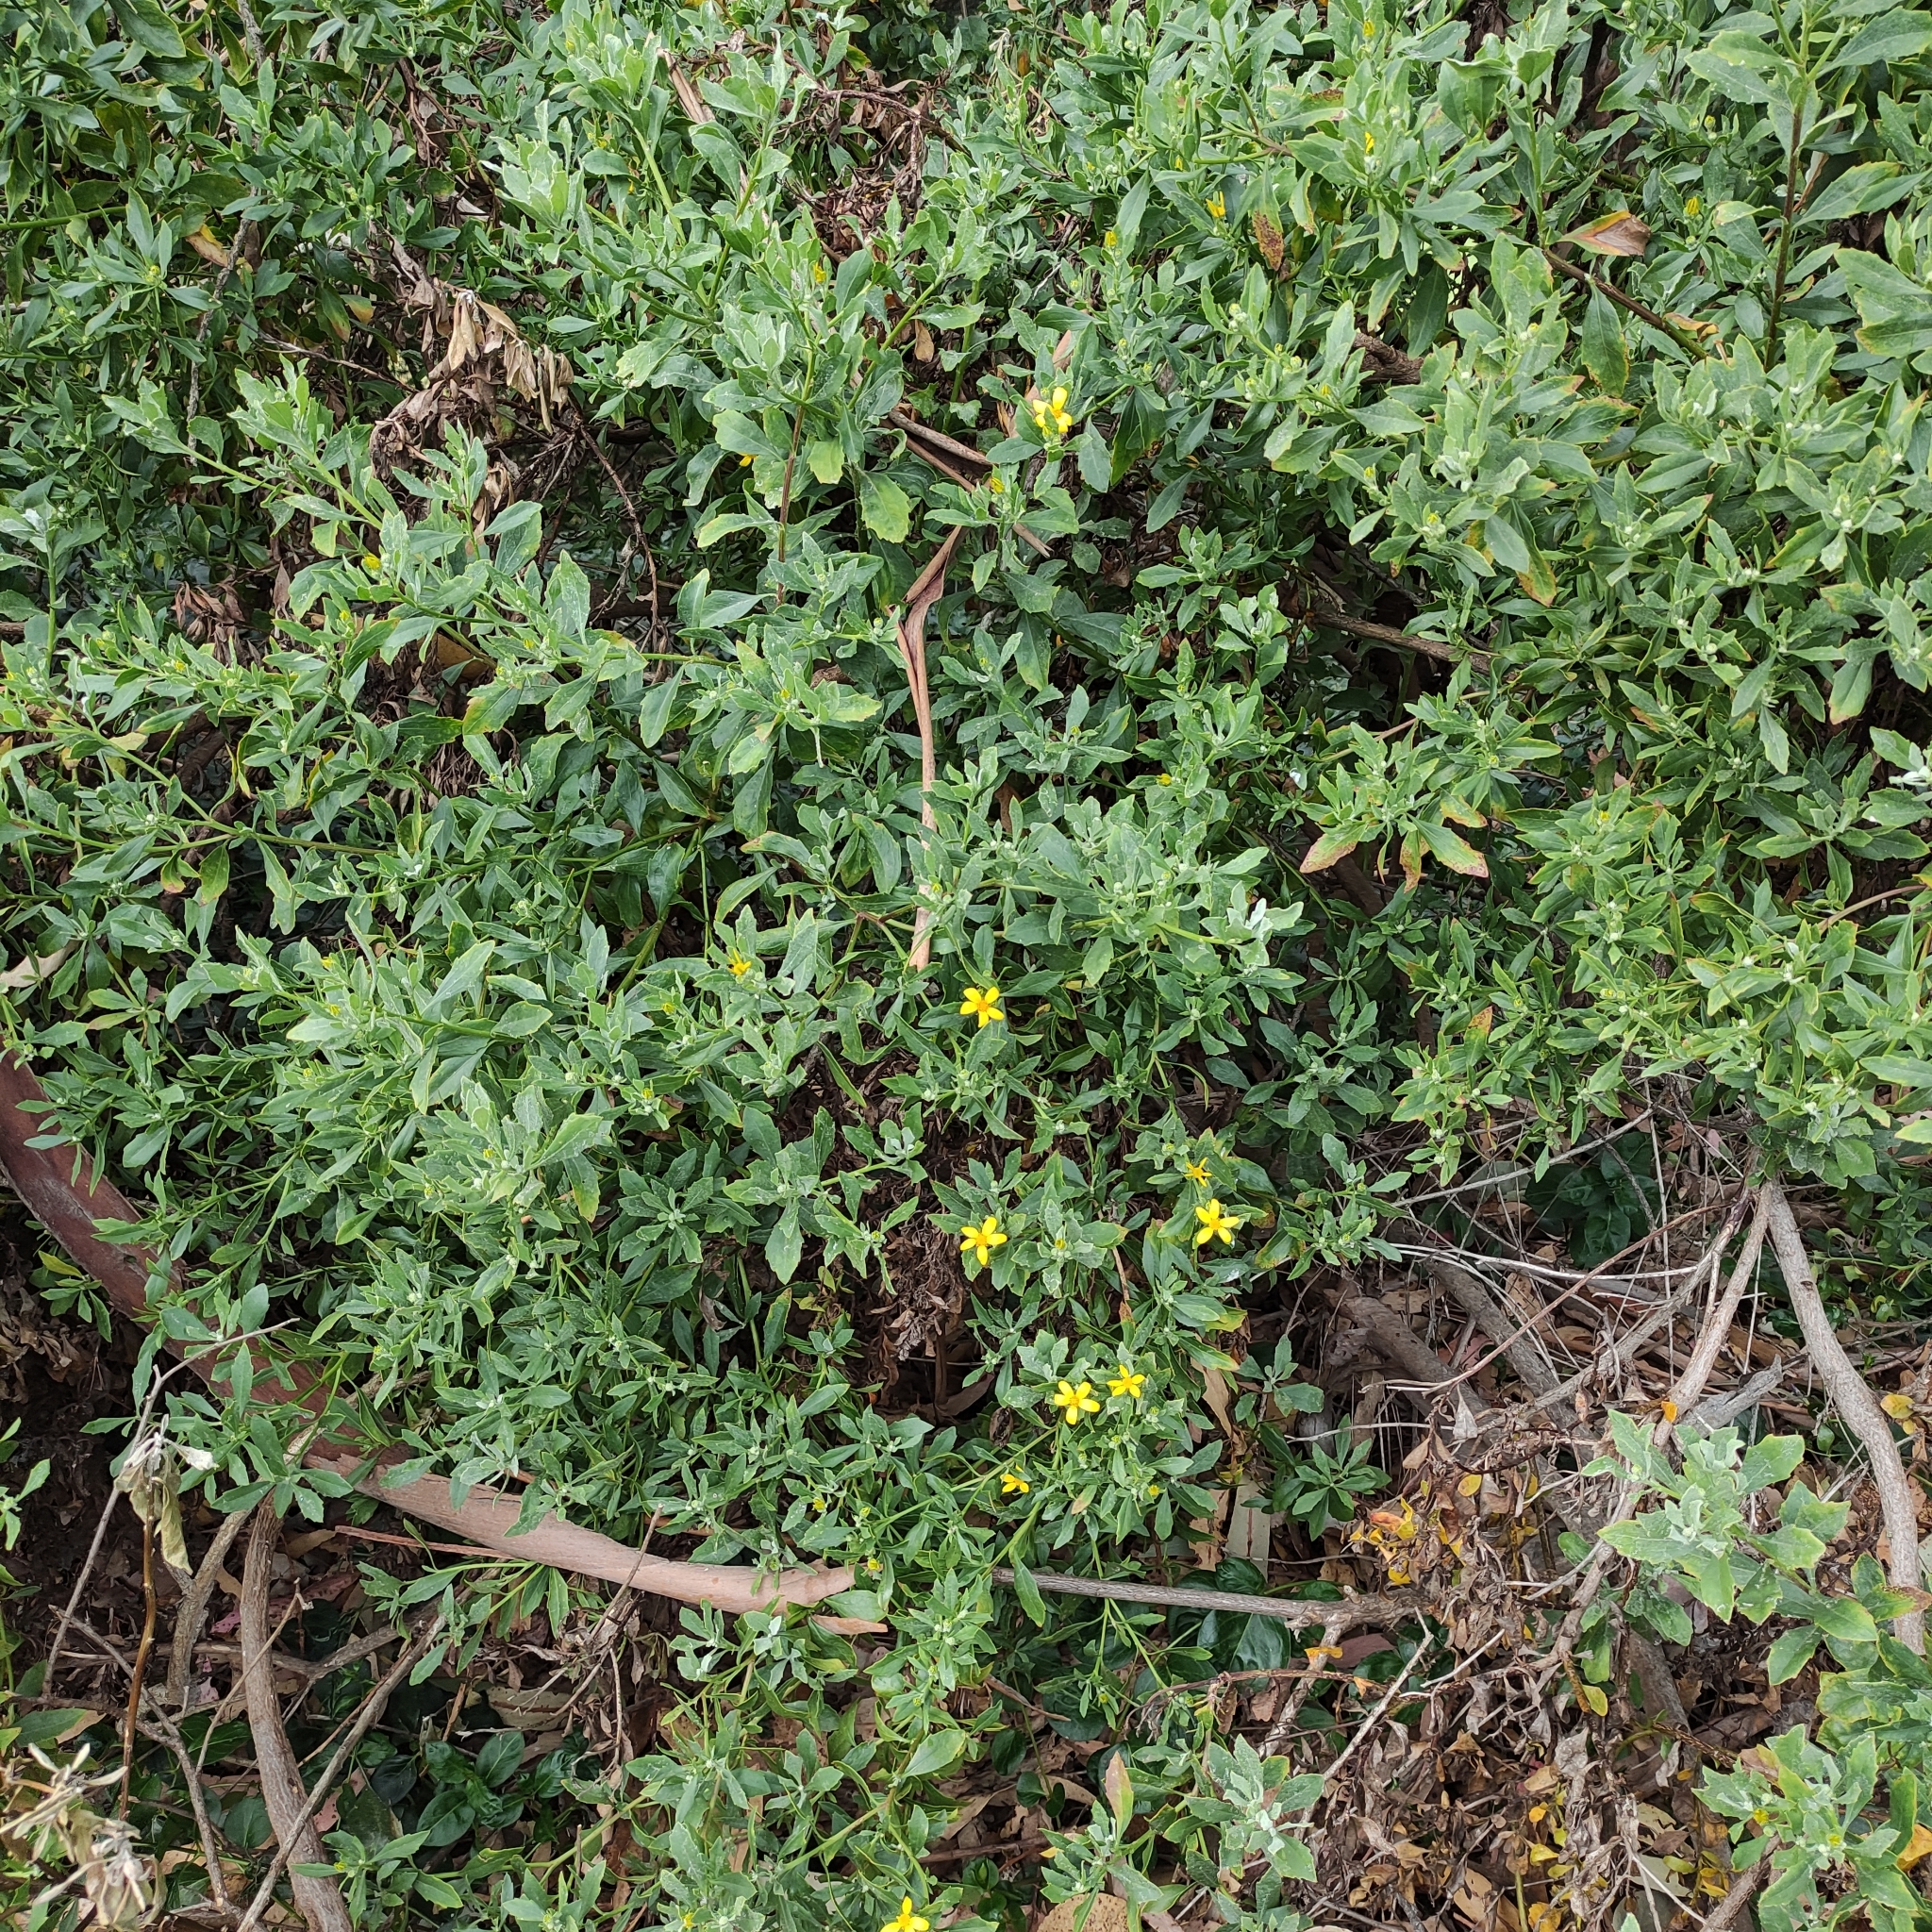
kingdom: Plantae
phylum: Tracheophyta
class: Magnoliopsida
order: Asterales
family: Asteraceae
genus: Osteospermum
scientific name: Osteospermum moniliferum
